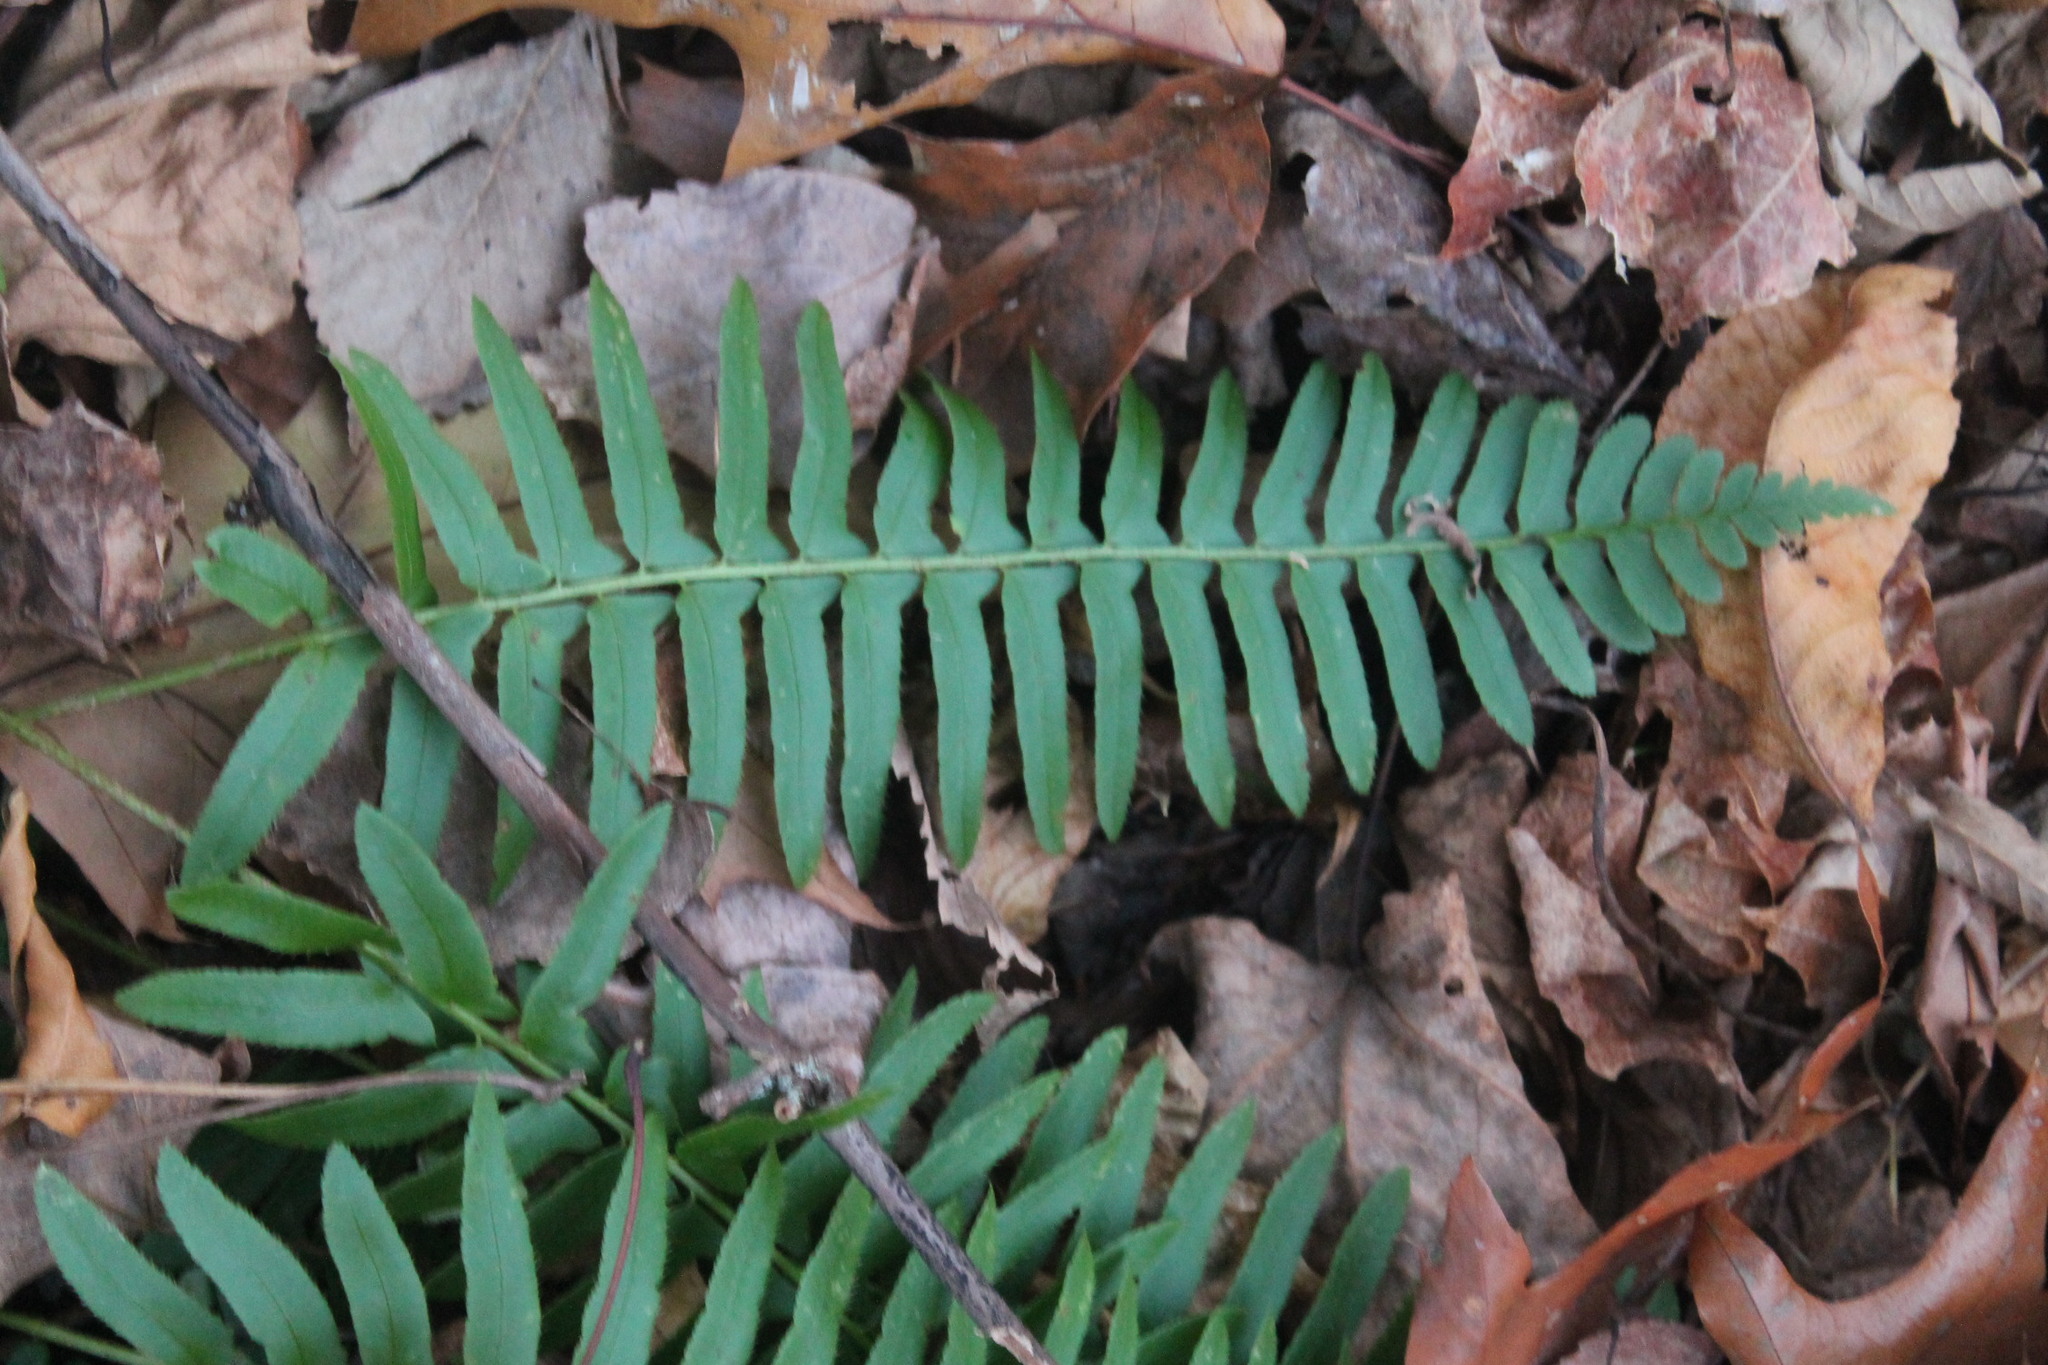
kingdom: Plantae
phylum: Tracheophyta
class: Polypodiopsida
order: Polypodiales
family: Dryopteridaceae
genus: Polystichum
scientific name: Polystichum acrostichoides
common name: Christmas fern
